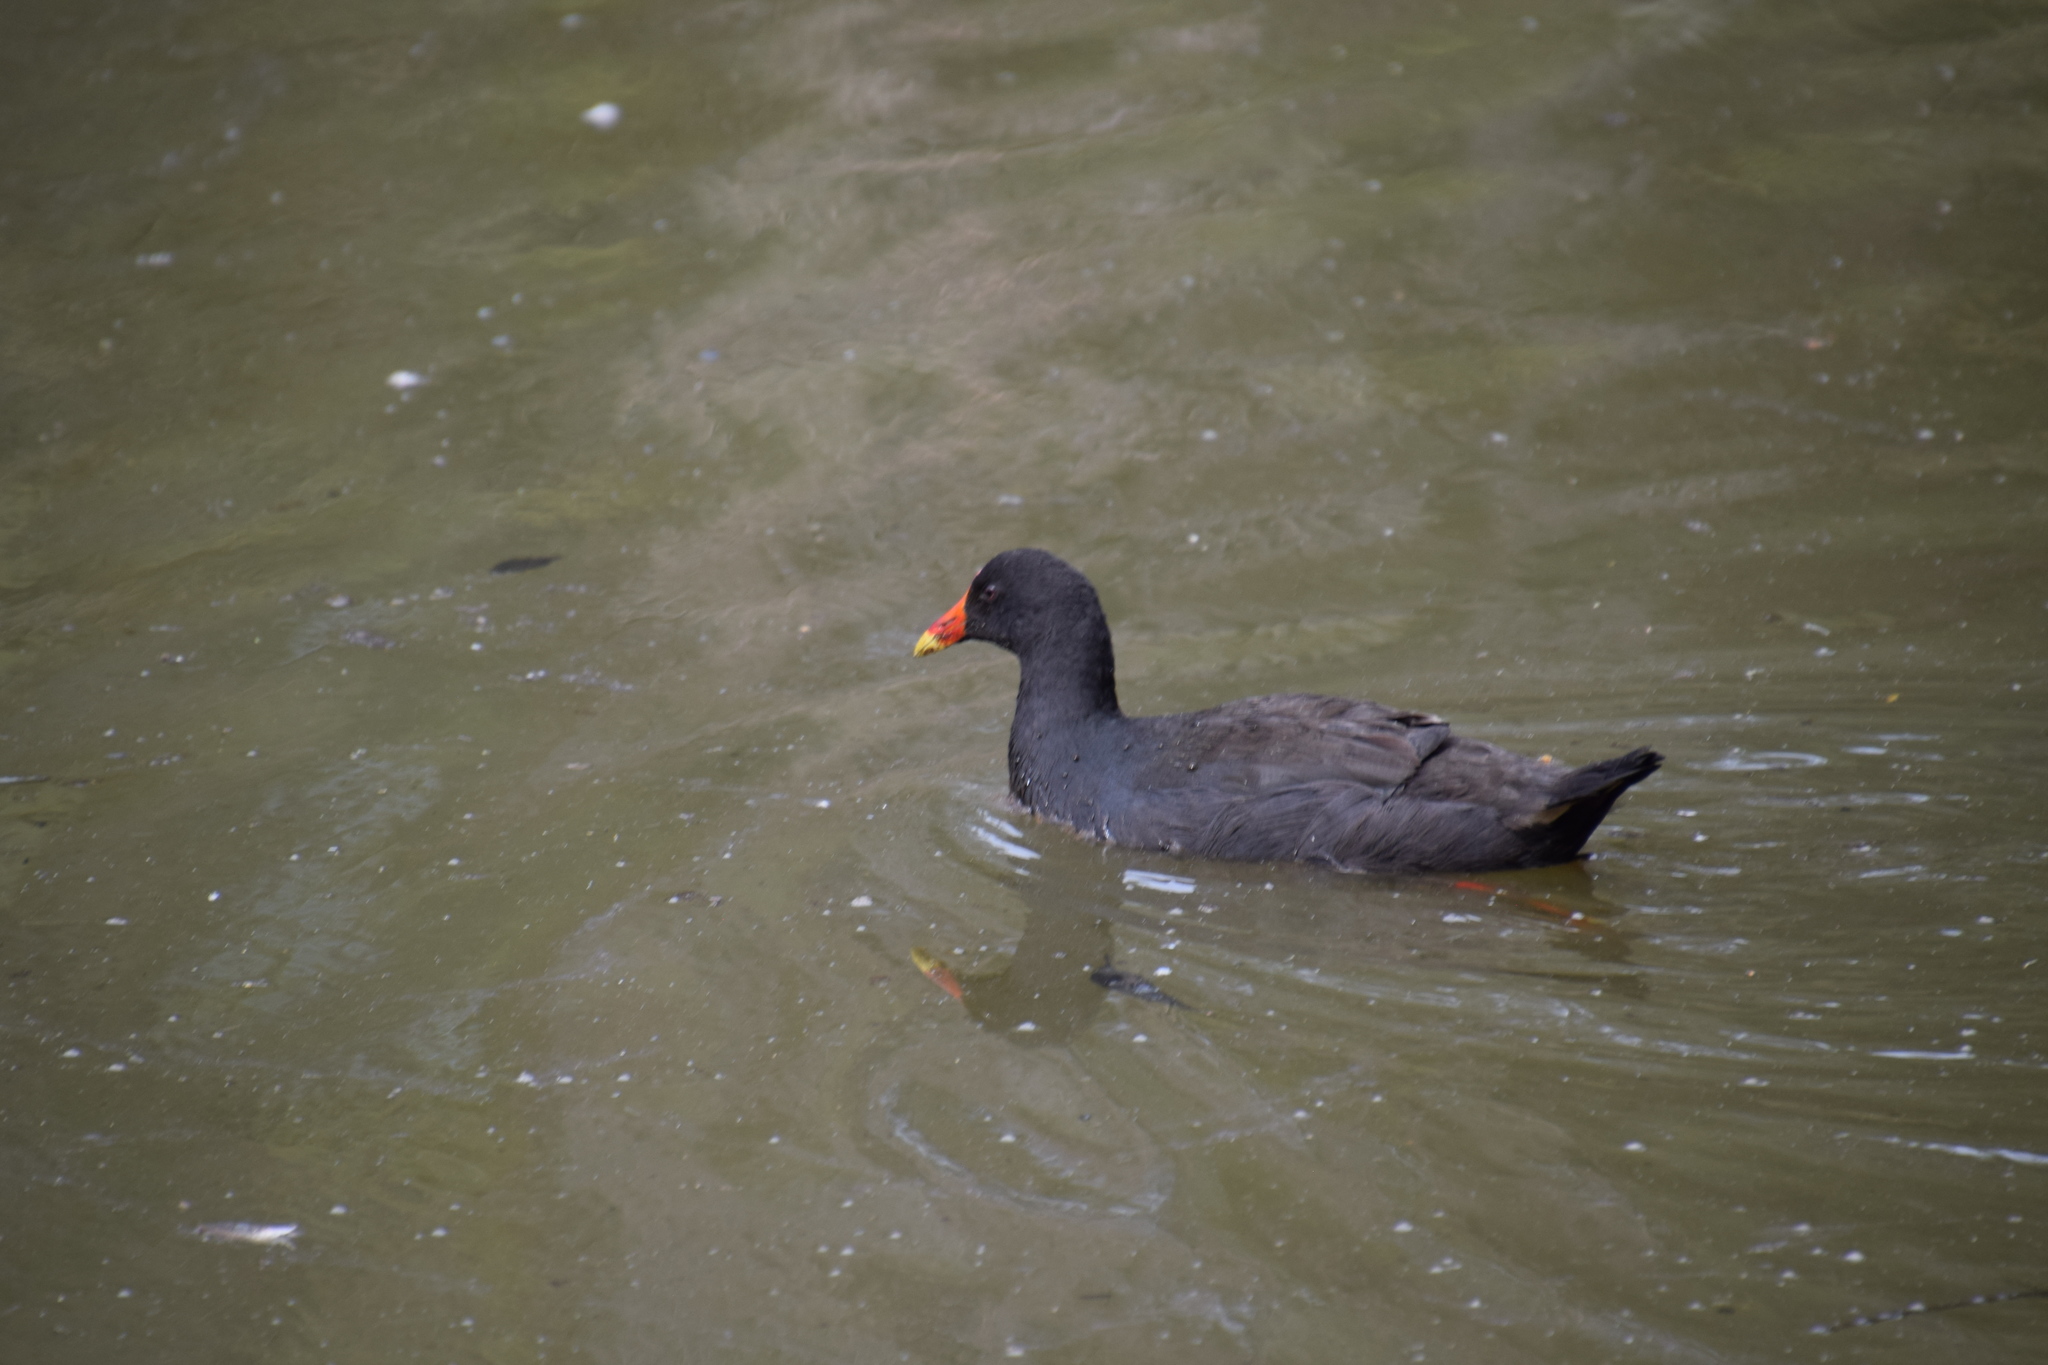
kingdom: Animalia
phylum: Chordata
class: Aves
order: Gruiformes
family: Rallidae
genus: Gallinula
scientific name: Gallinula tenebrosa
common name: Dusky moorhen
